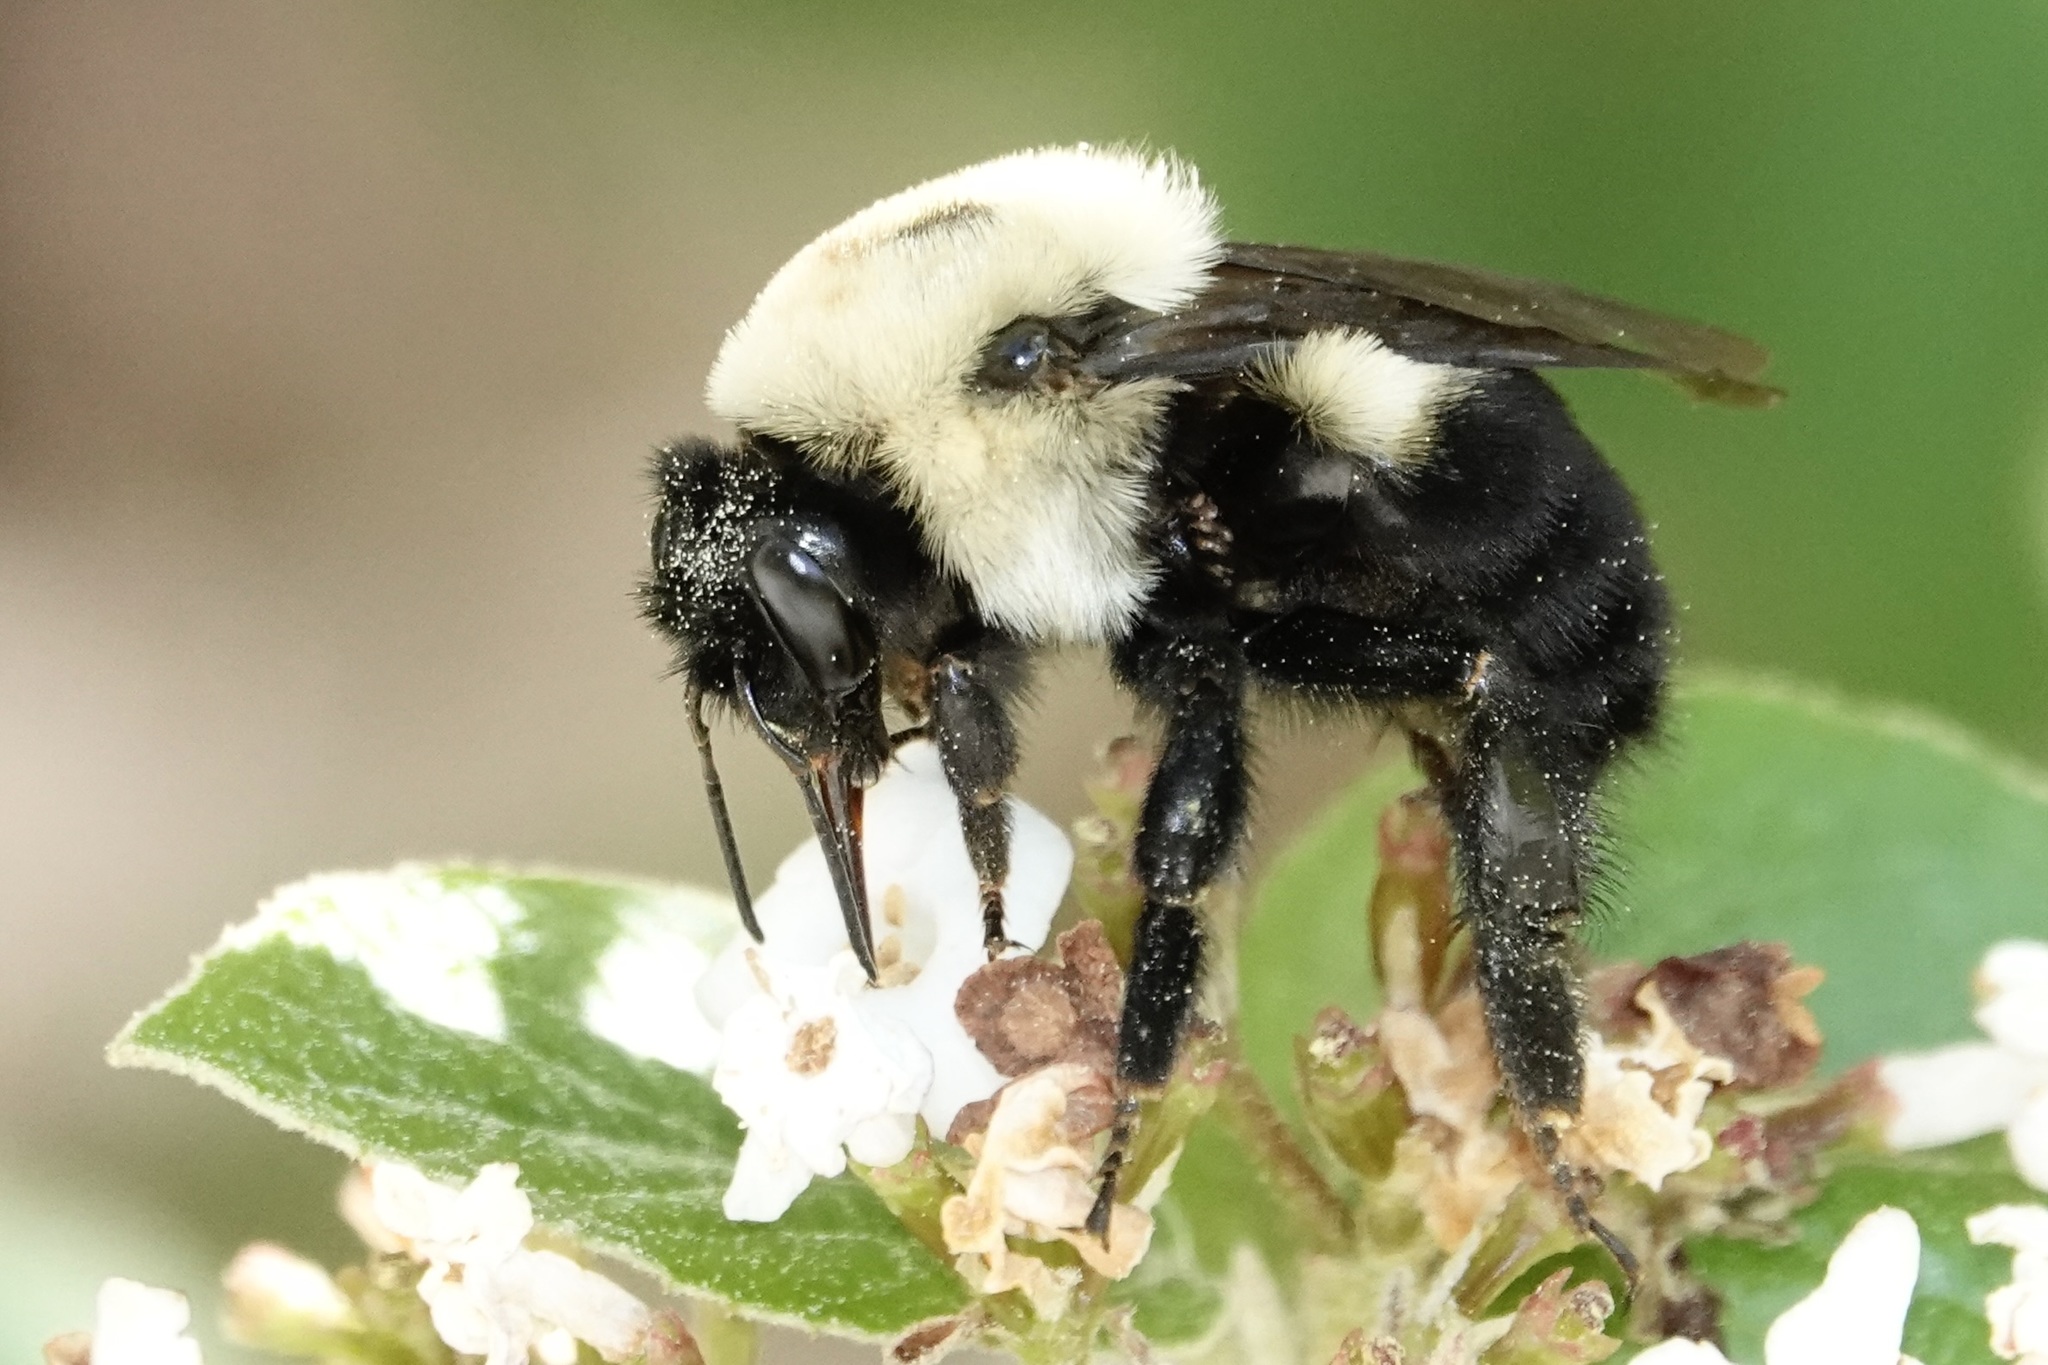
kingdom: Animalia
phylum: Arthropoda
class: Insecta
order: Hymenoptera
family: Apidae
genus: Bombus
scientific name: Bombus griseocollis
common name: Brown-belted bumble bee
